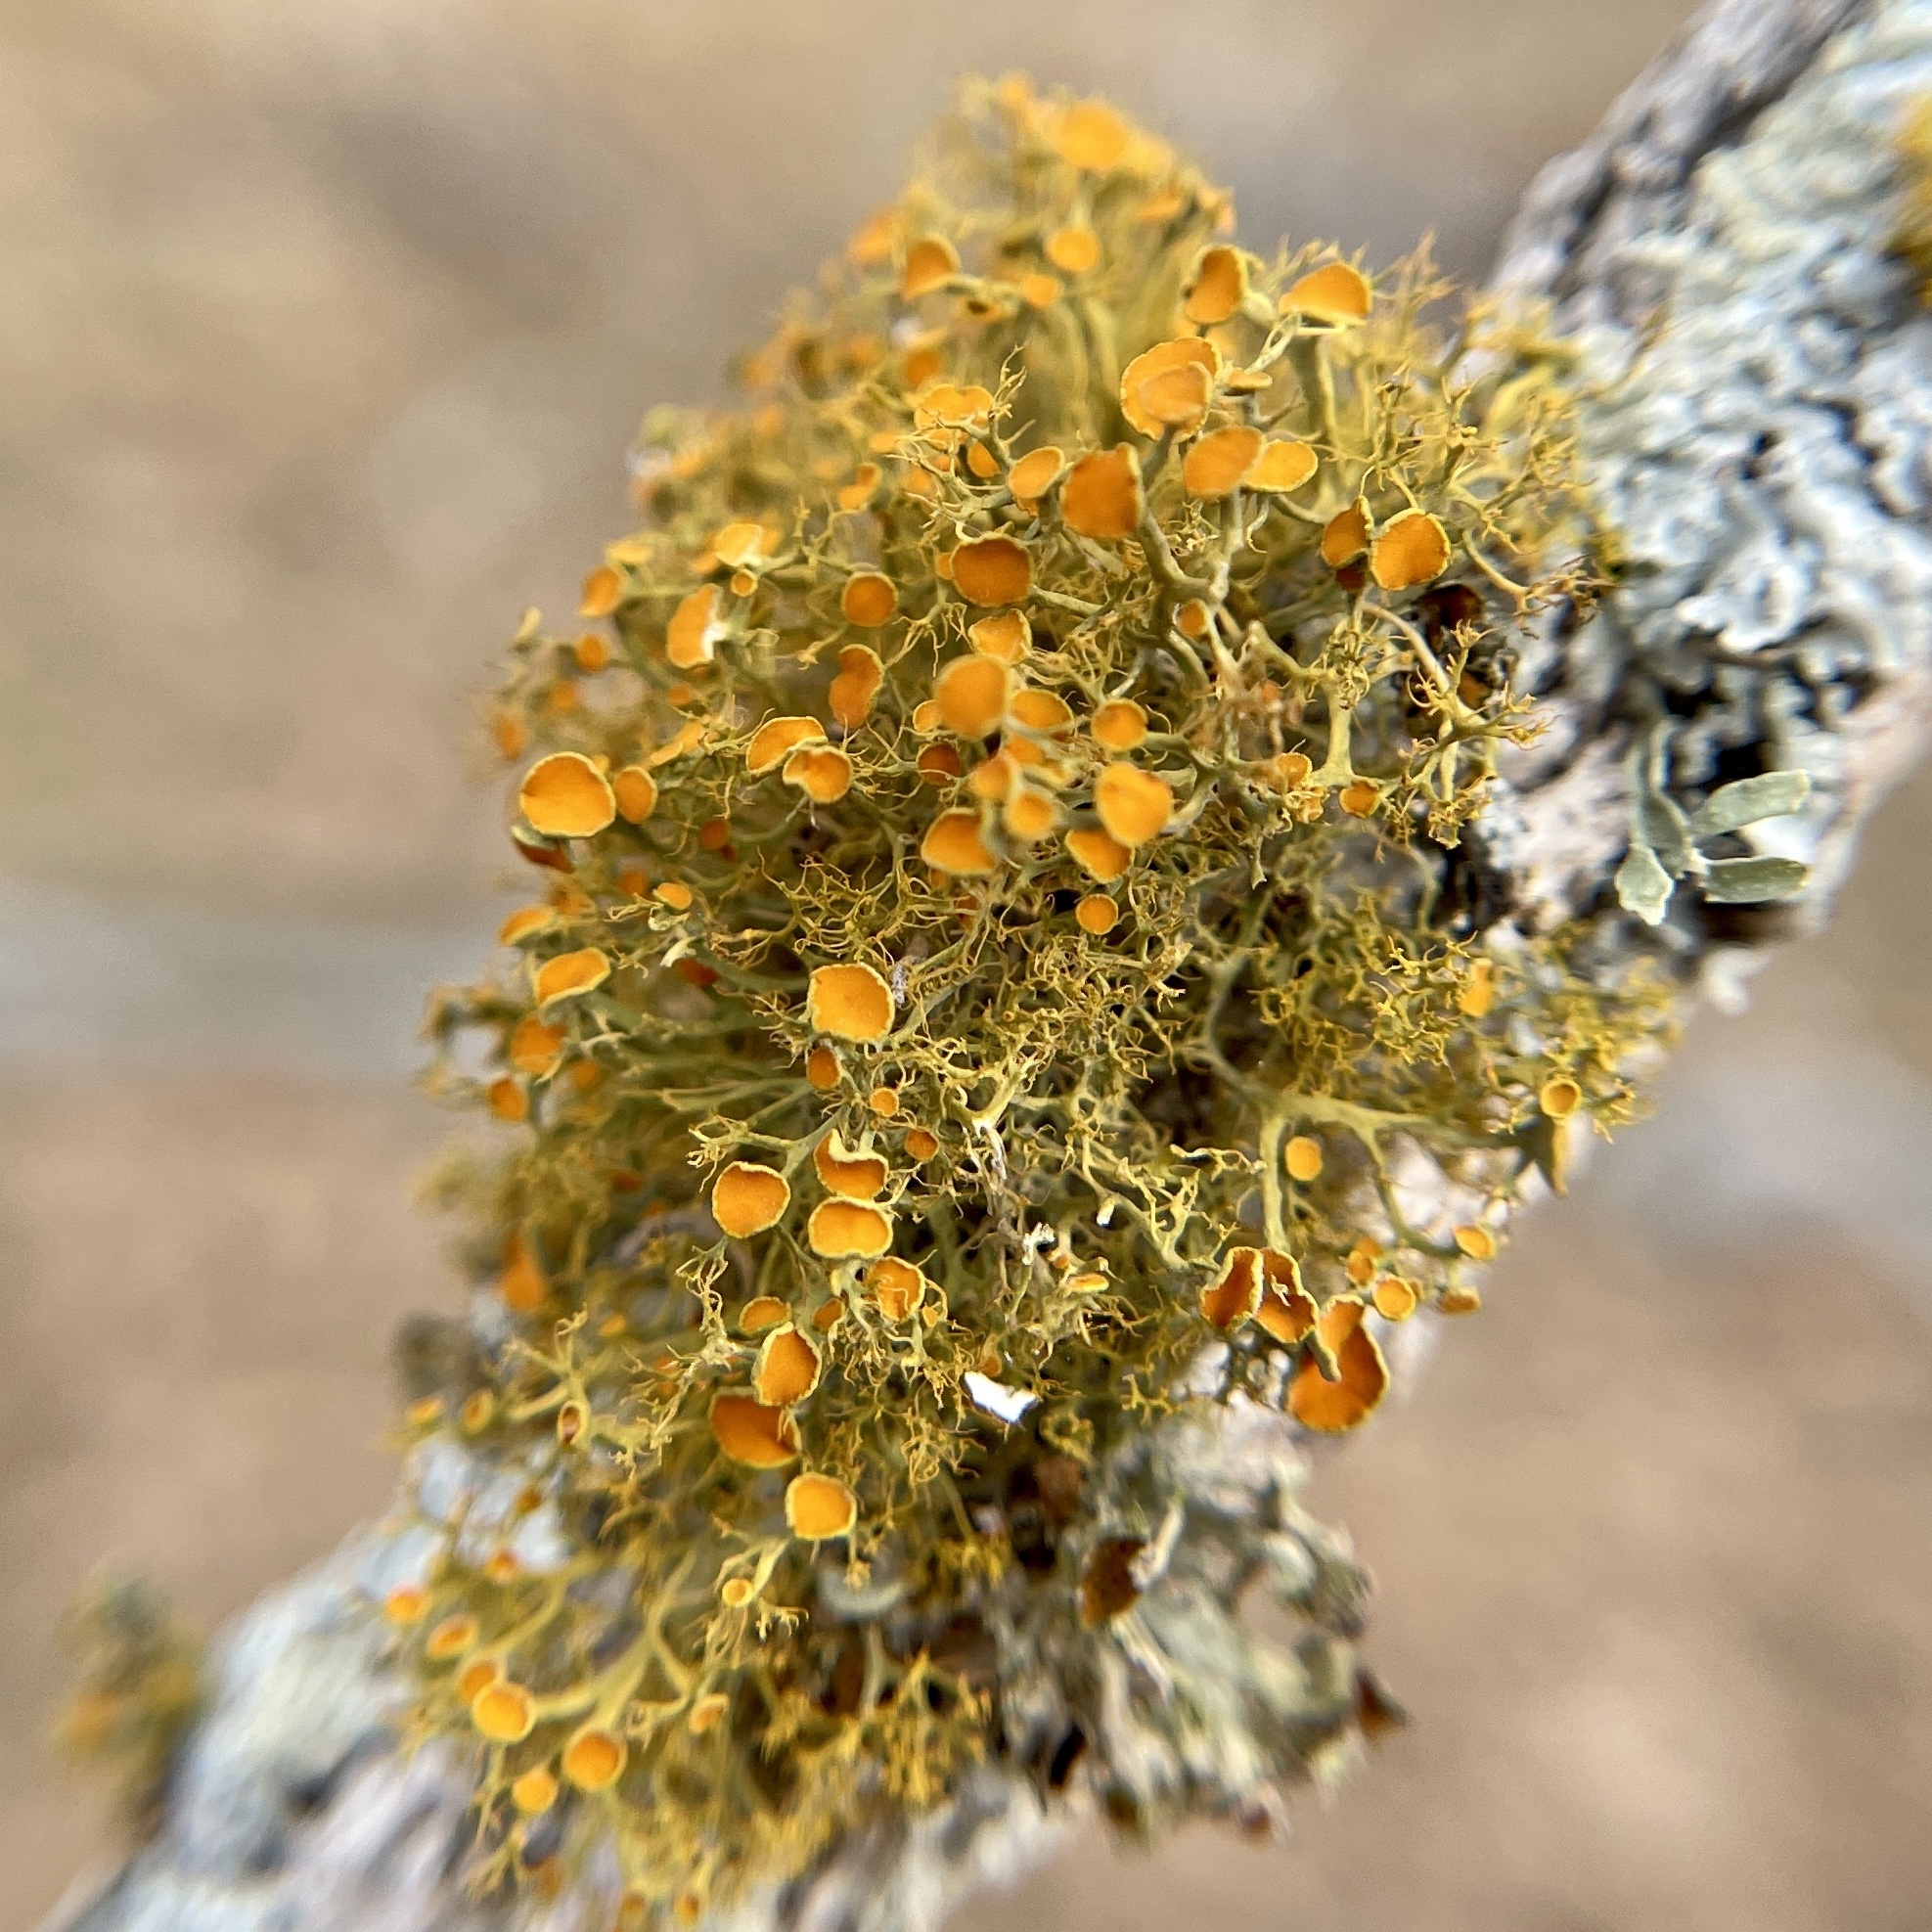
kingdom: Fungi
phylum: Ascomycota
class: Lecanoromycetes
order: Teloschistales
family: Teloschistaceae
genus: Teloschistes
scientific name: Teloschistes exilis
